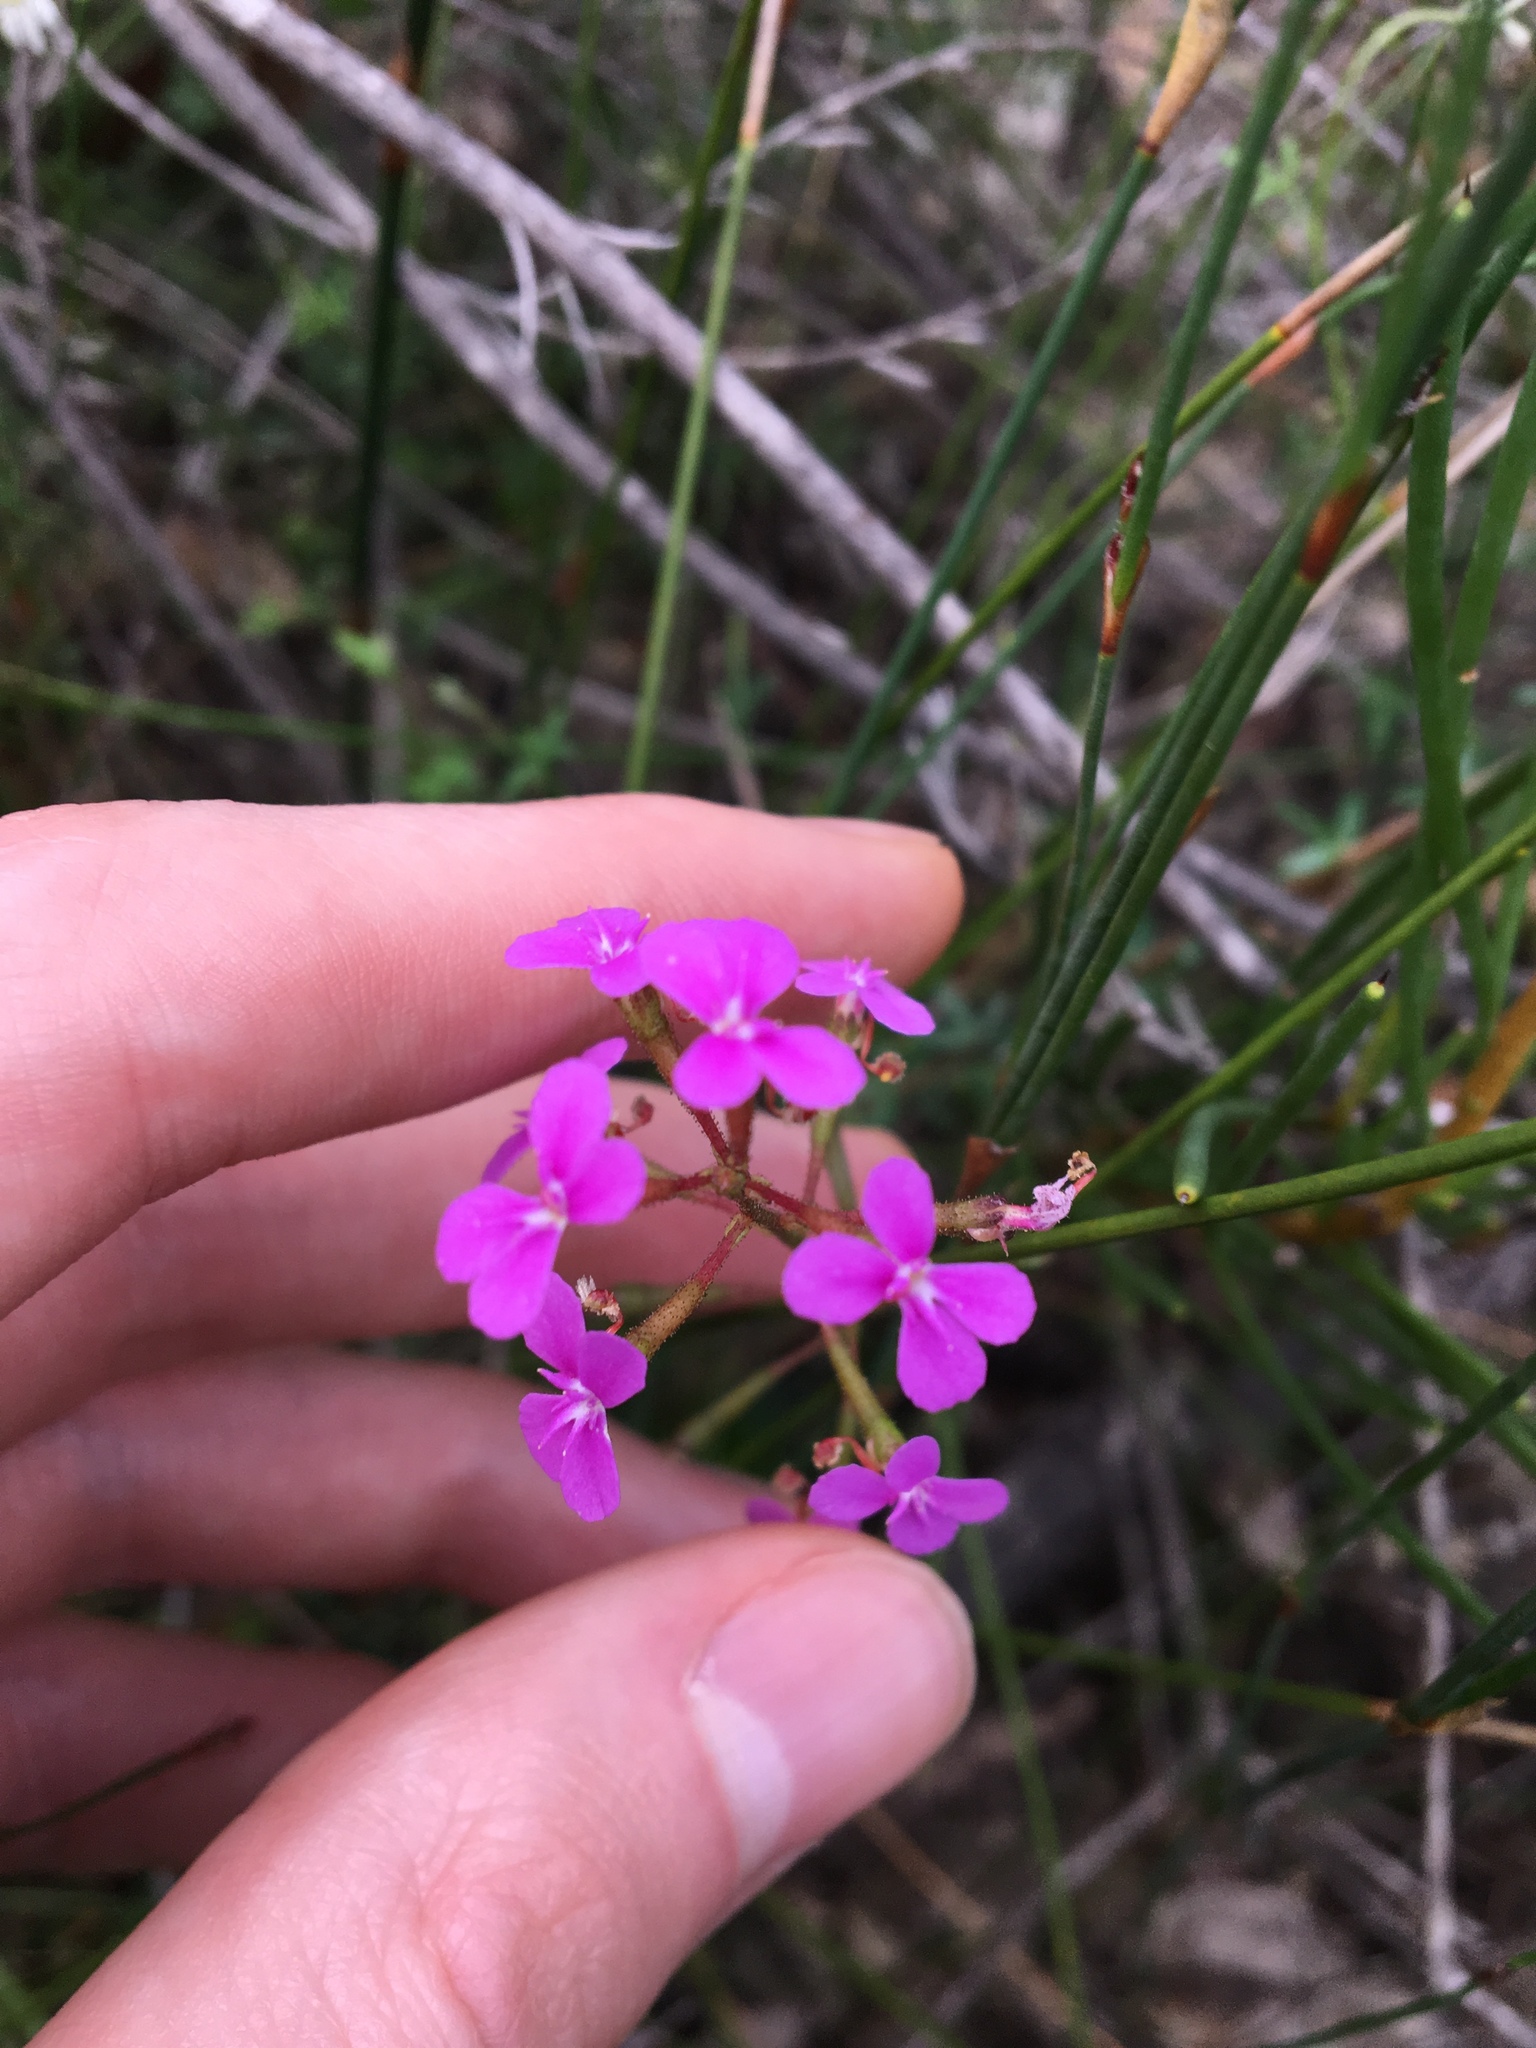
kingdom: Plantae
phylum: Tracheophyta
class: Magnoliopsida
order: Asterales
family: Stylidiaceae
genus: Stylidium
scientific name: Stylidium lineare
